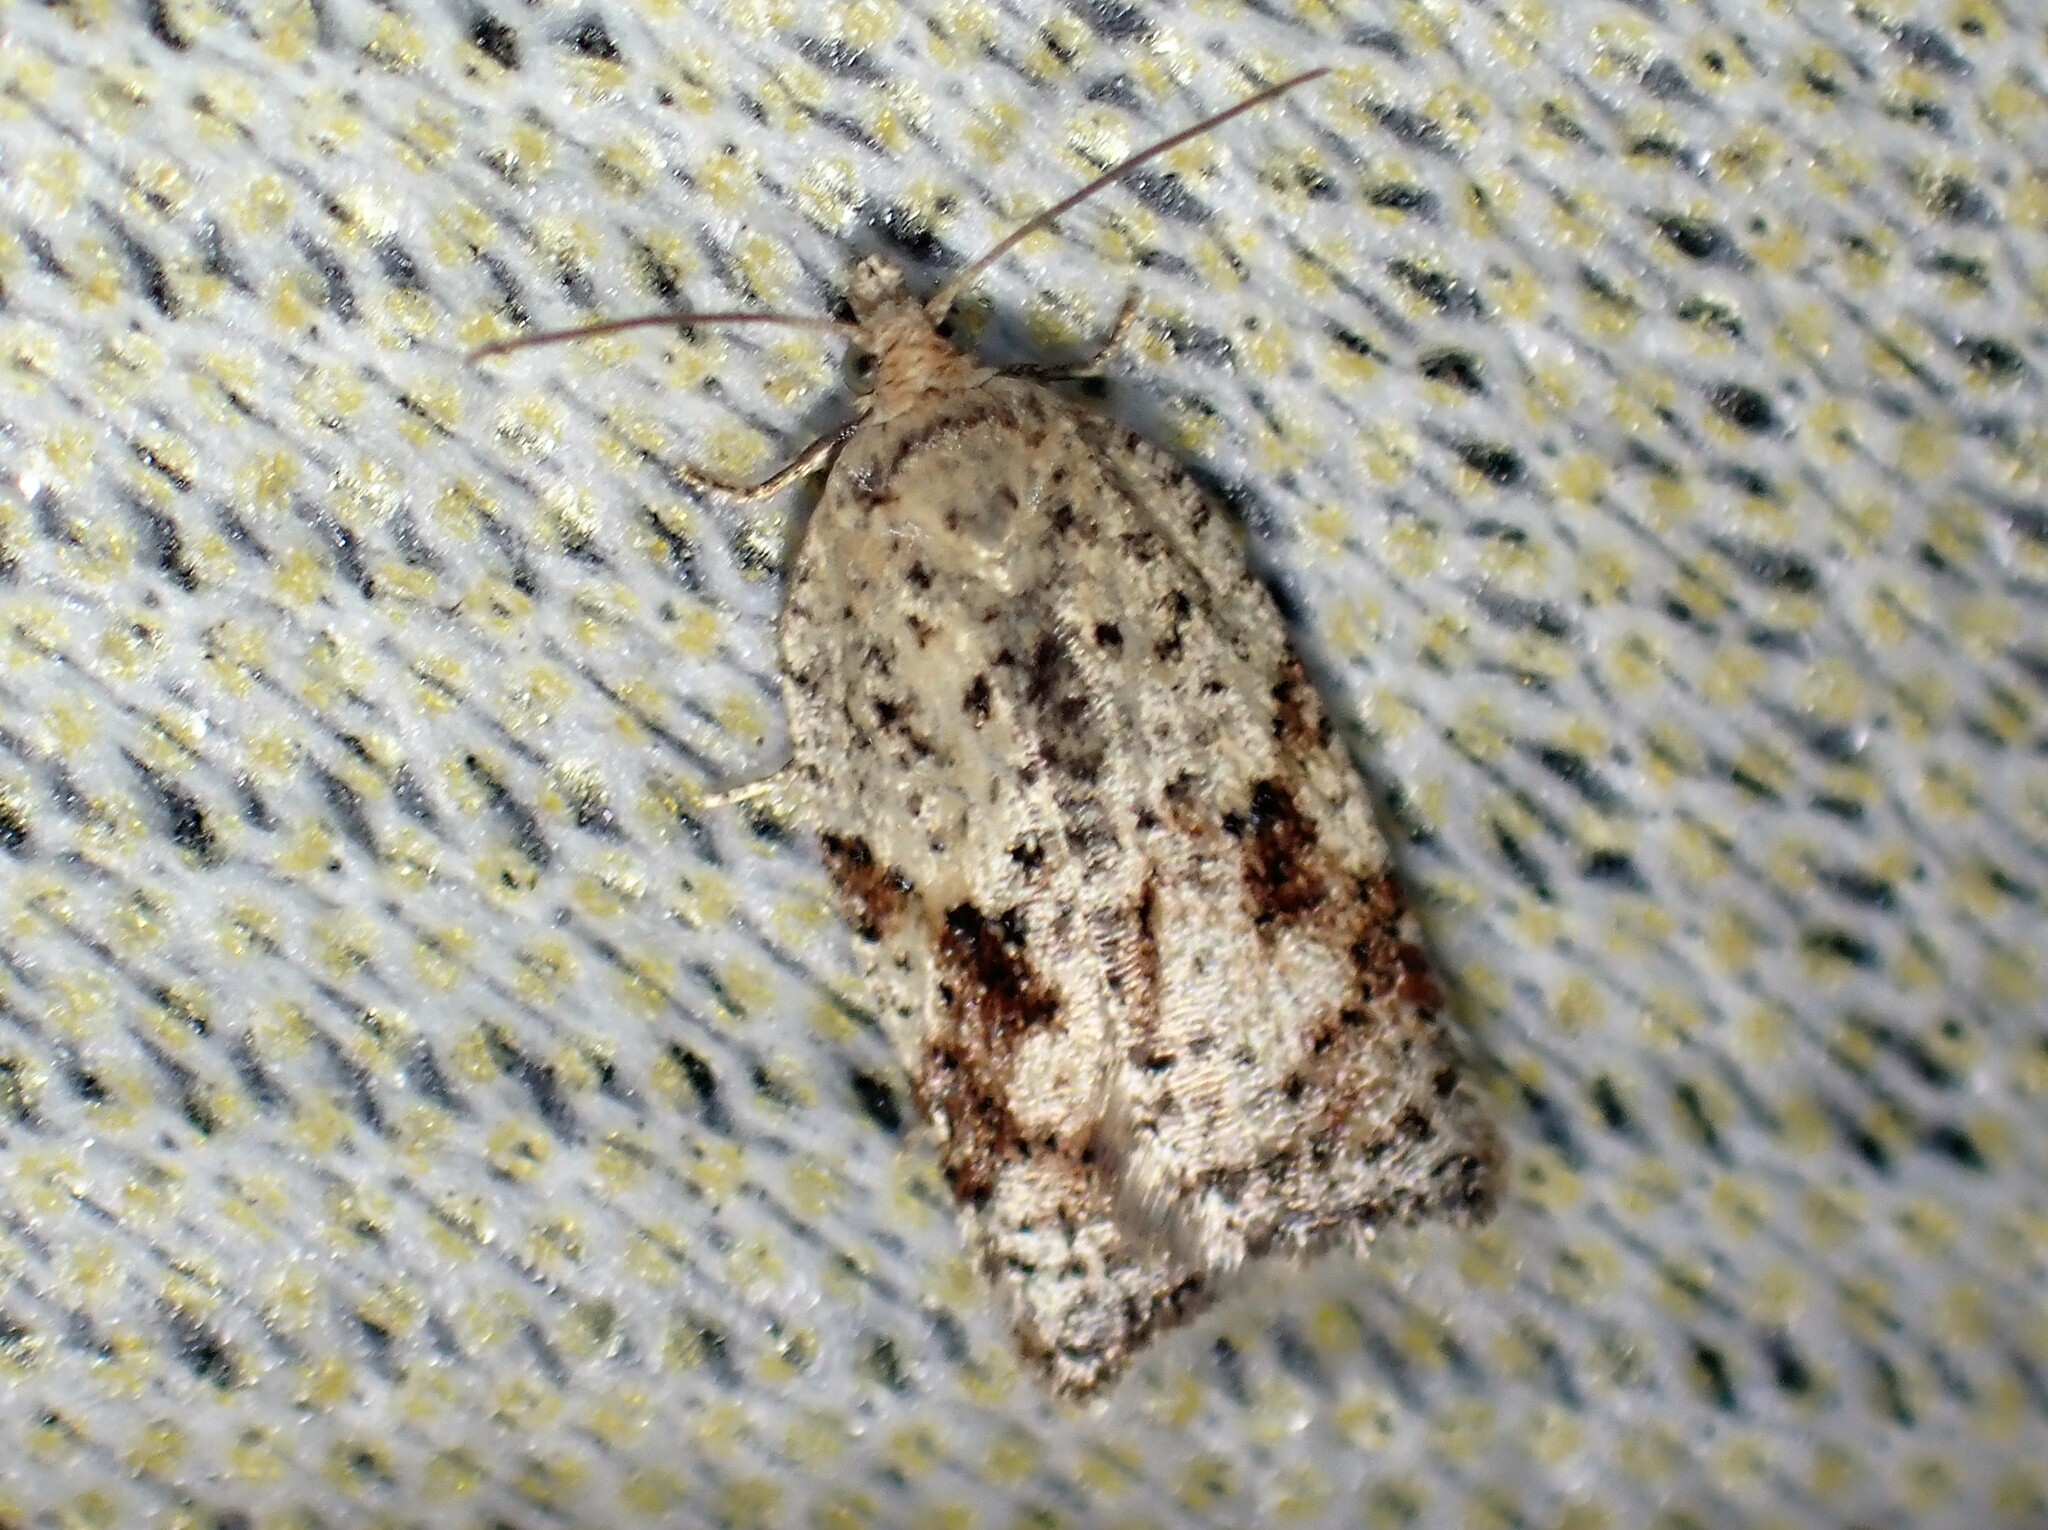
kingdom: Animalia
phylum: Arthropoda
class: Insecta
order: Lepidoptera
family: Tortricidae
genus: Acleris
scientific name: Acleris stadiana
